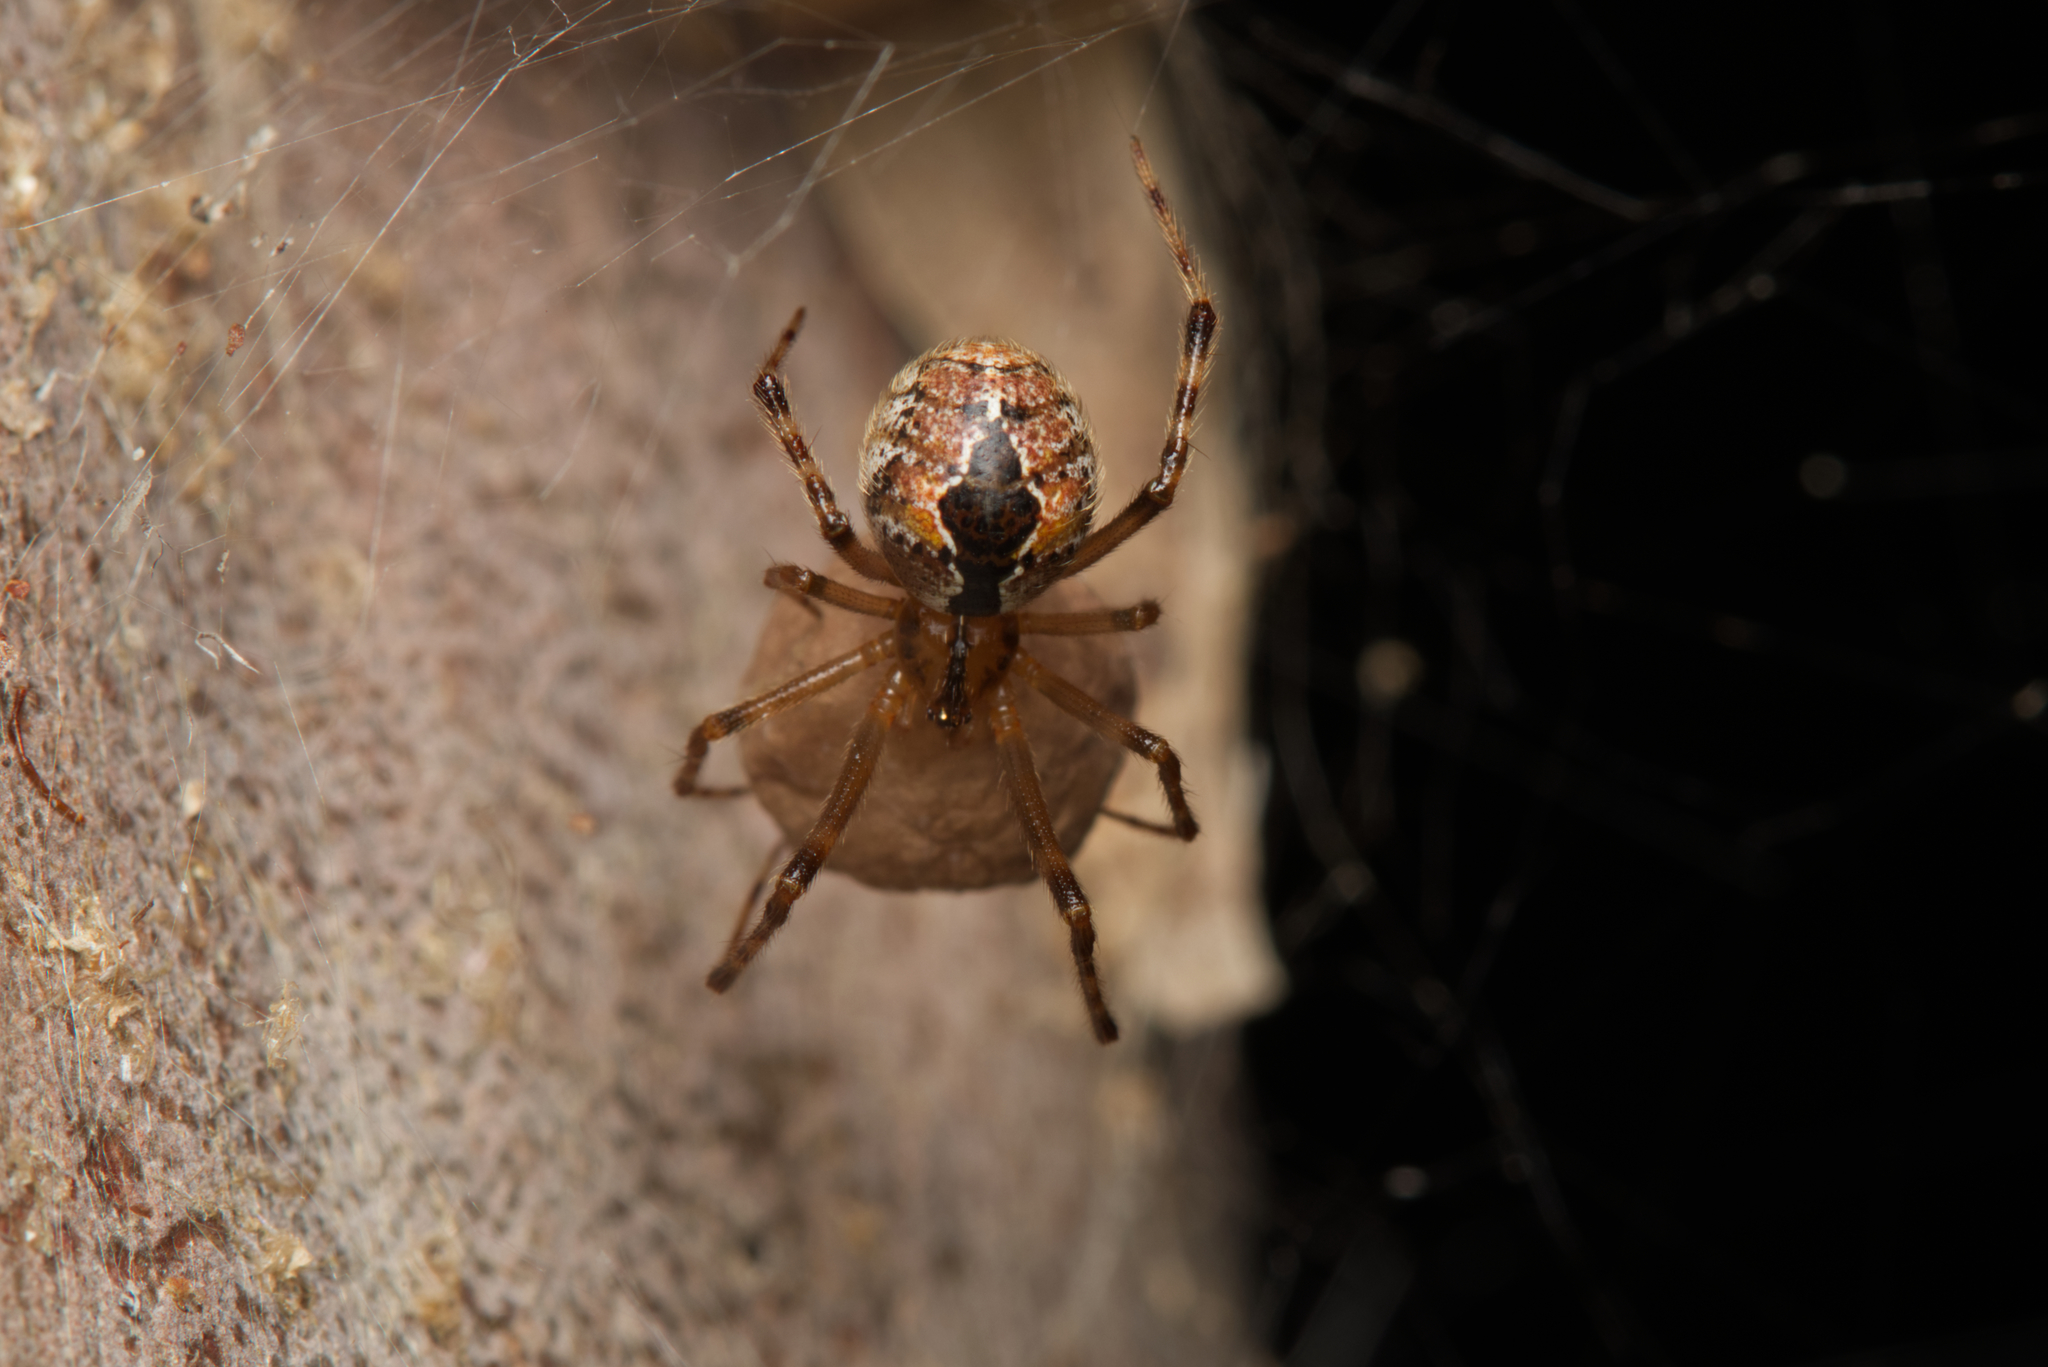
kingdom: Animalia
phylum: Arthropoda
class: Arachnida
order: Araneae
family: Theridiidae
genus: Cryptachaea
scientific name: Cryptachaea veruculata
